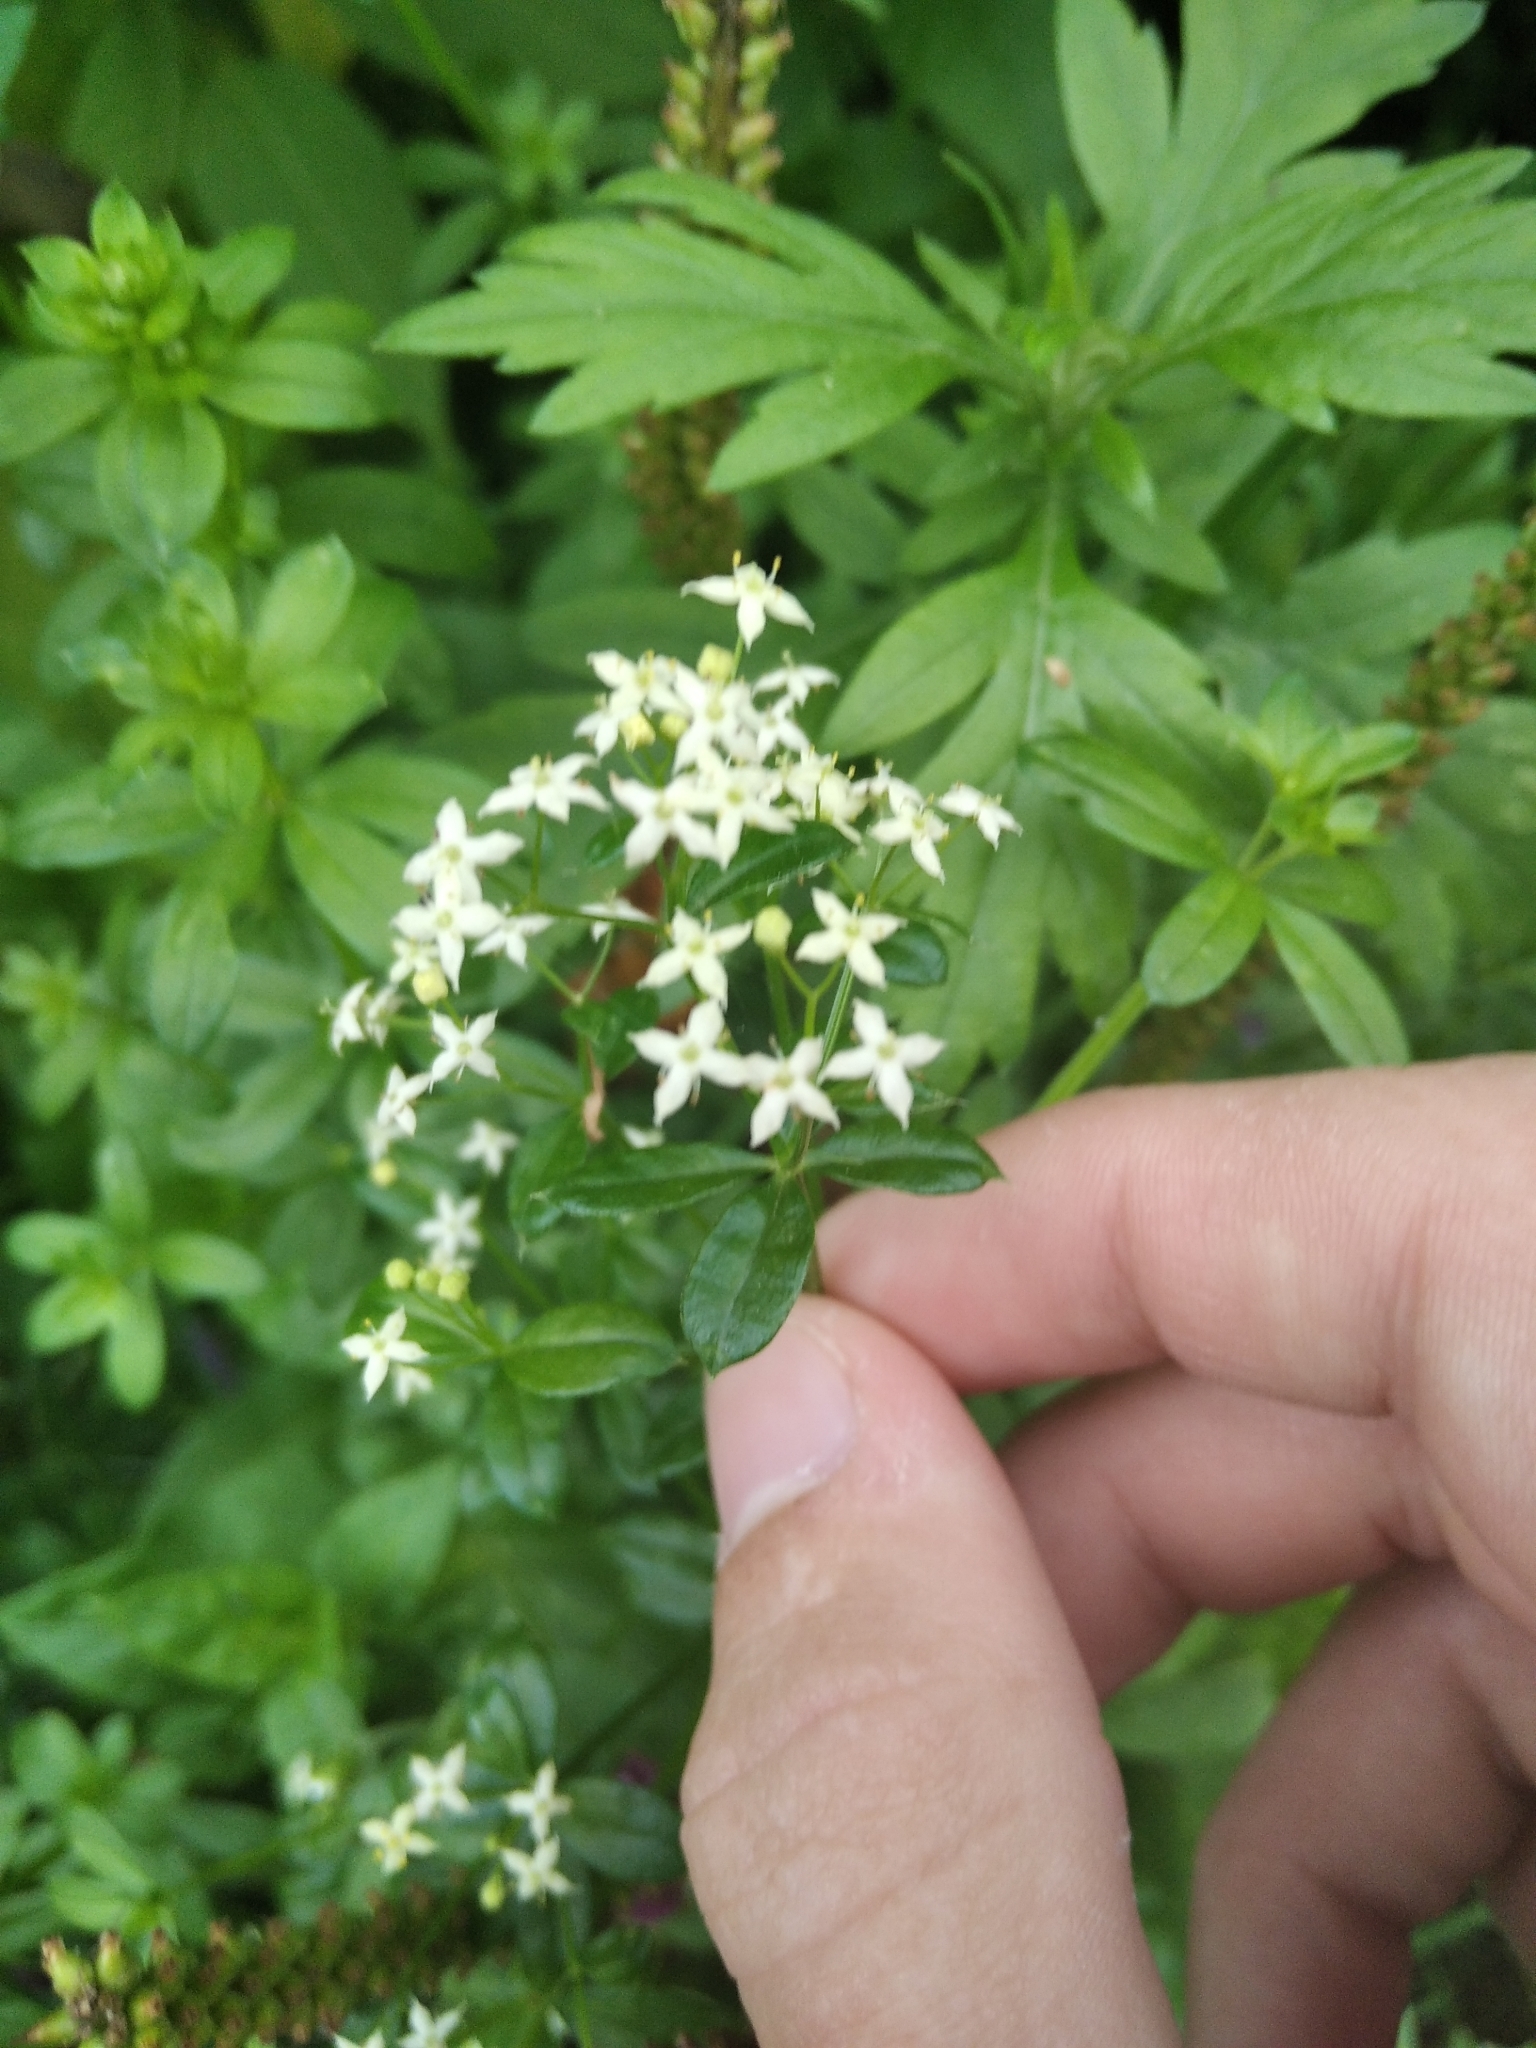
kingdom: Plantae
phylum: Tracheophyta
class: Magnoliopsida
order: Gentianales
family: Rubiaceae
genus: Galium
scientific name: Galium boreale
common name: Northern bedstraw
